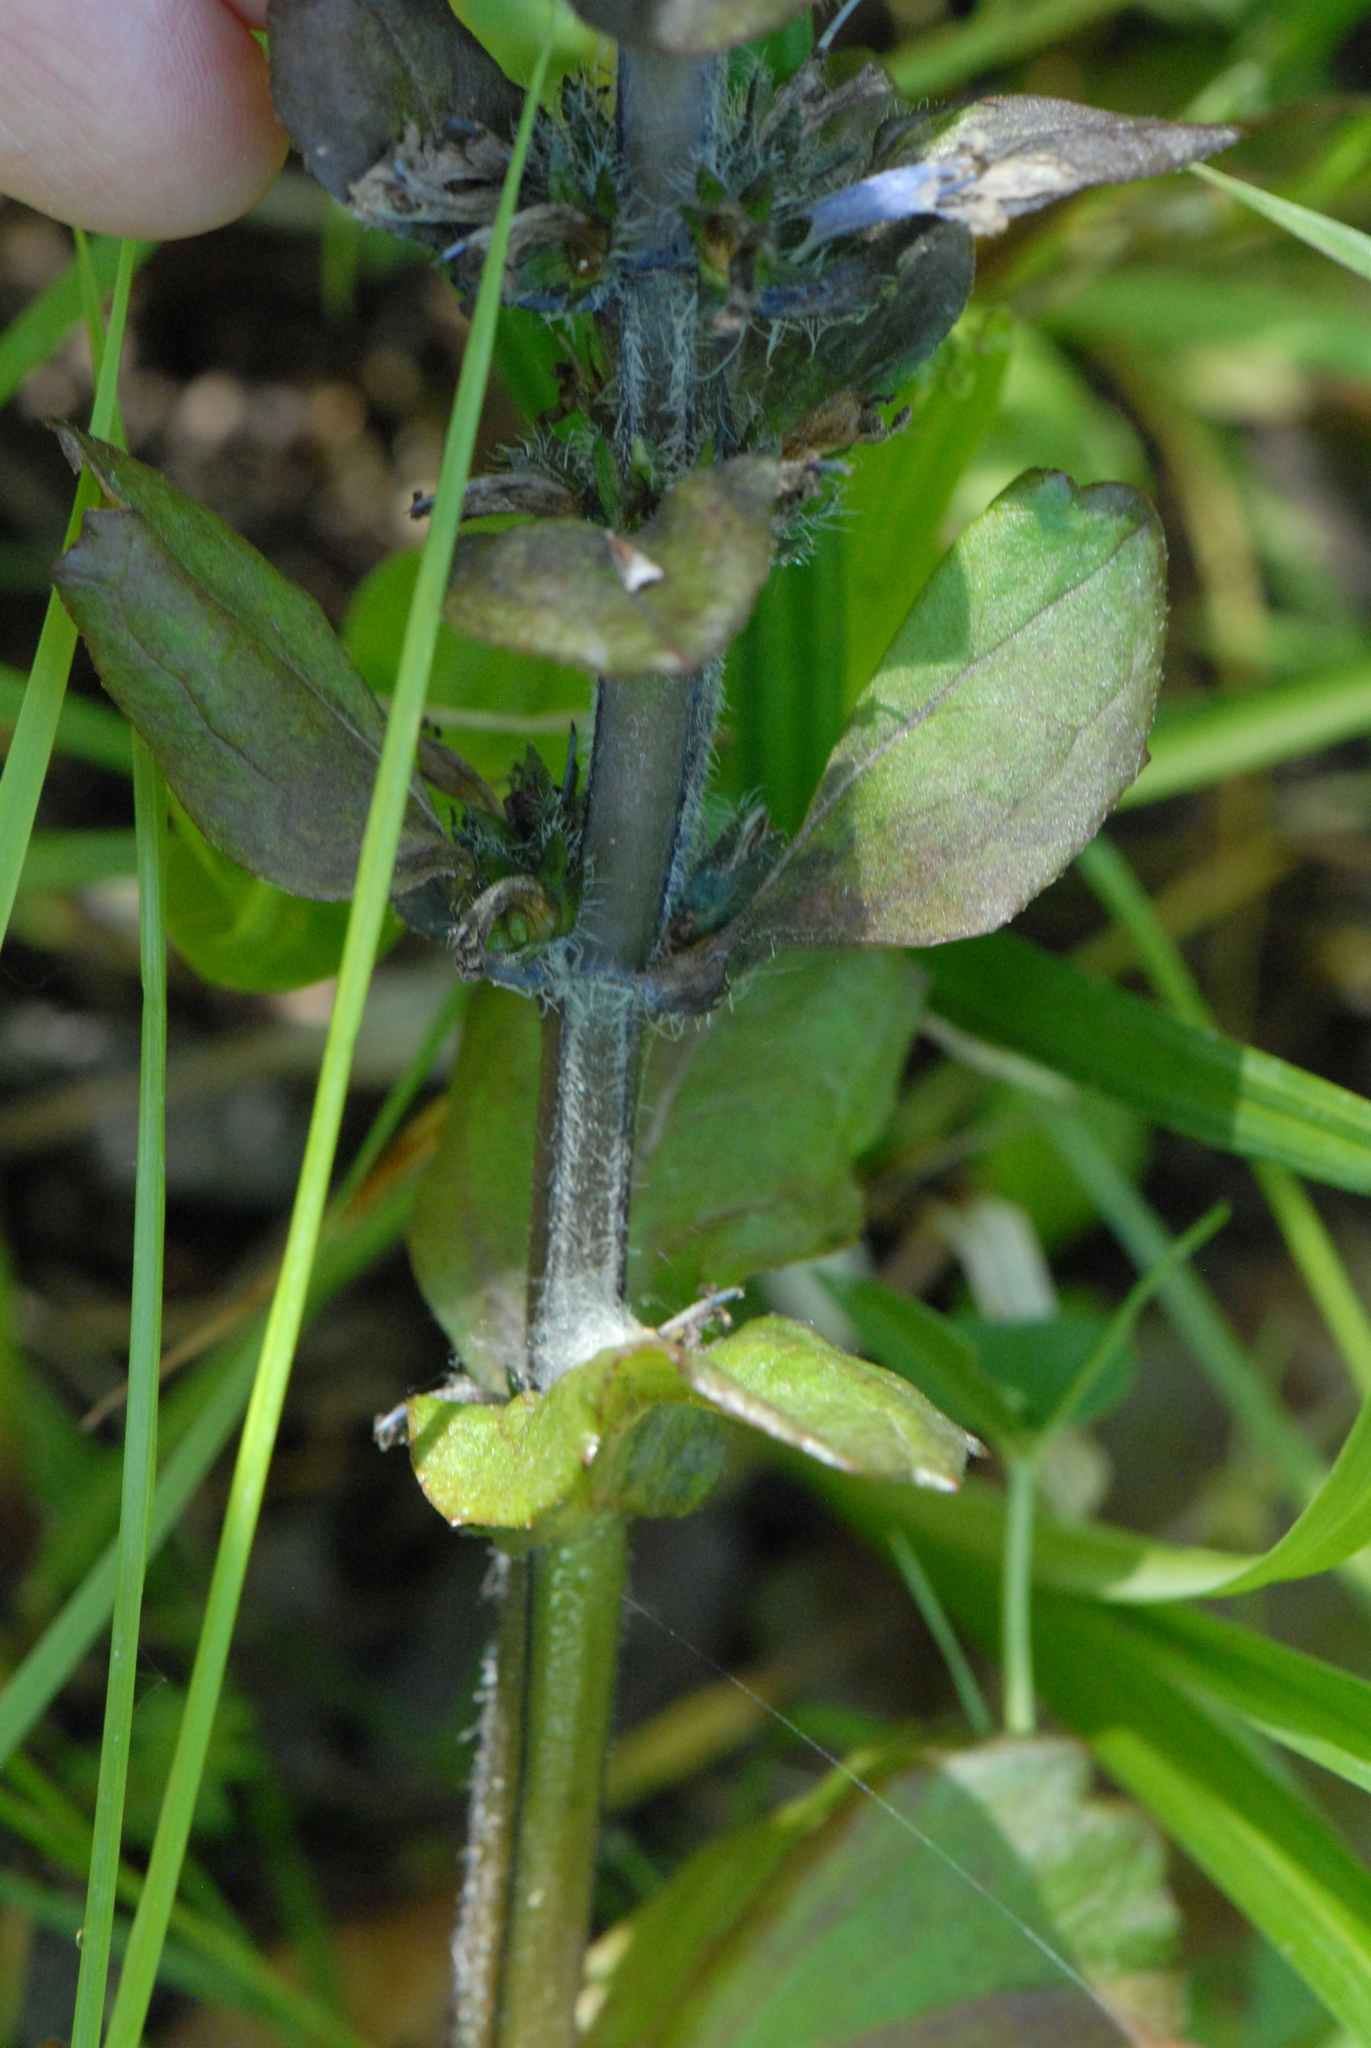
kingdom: Plantae
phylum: Tracheophyta
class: Magnoliopsida
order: Lamiales
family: Lamiaceae
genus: Ajuga
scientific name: Ajuga reptans
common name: Bugle
